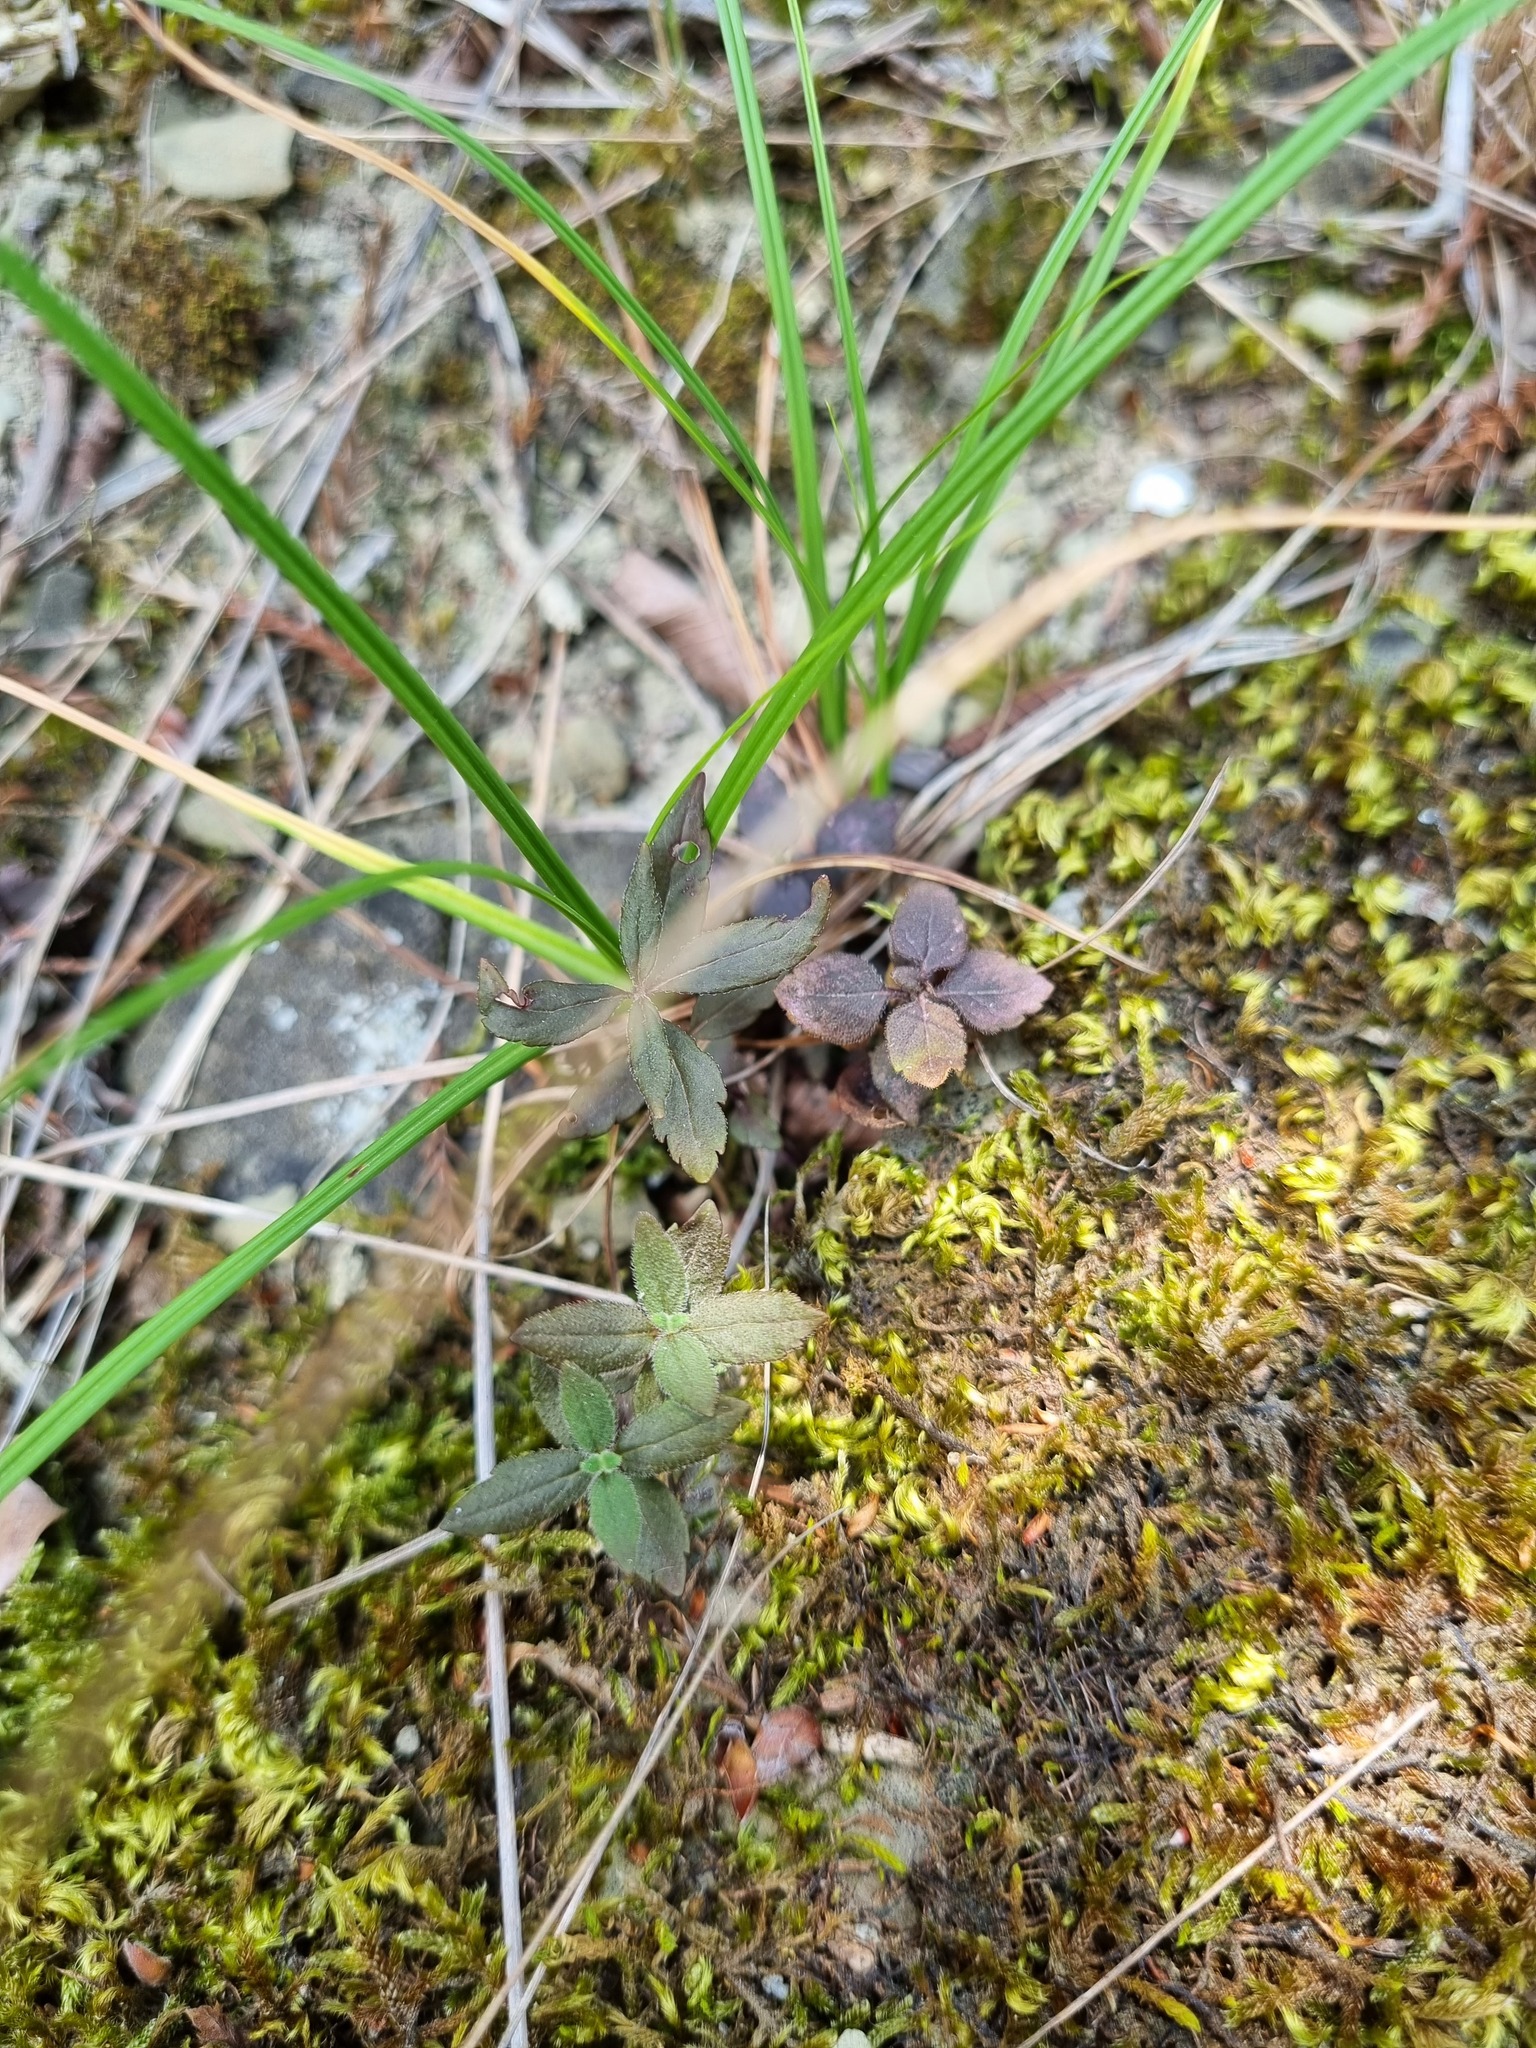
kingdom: Plantae
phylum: Tracheophyta
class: Magnoliopsida
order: Lamiales
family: Plantaginaceae
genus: Veronica
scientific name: Veronica
